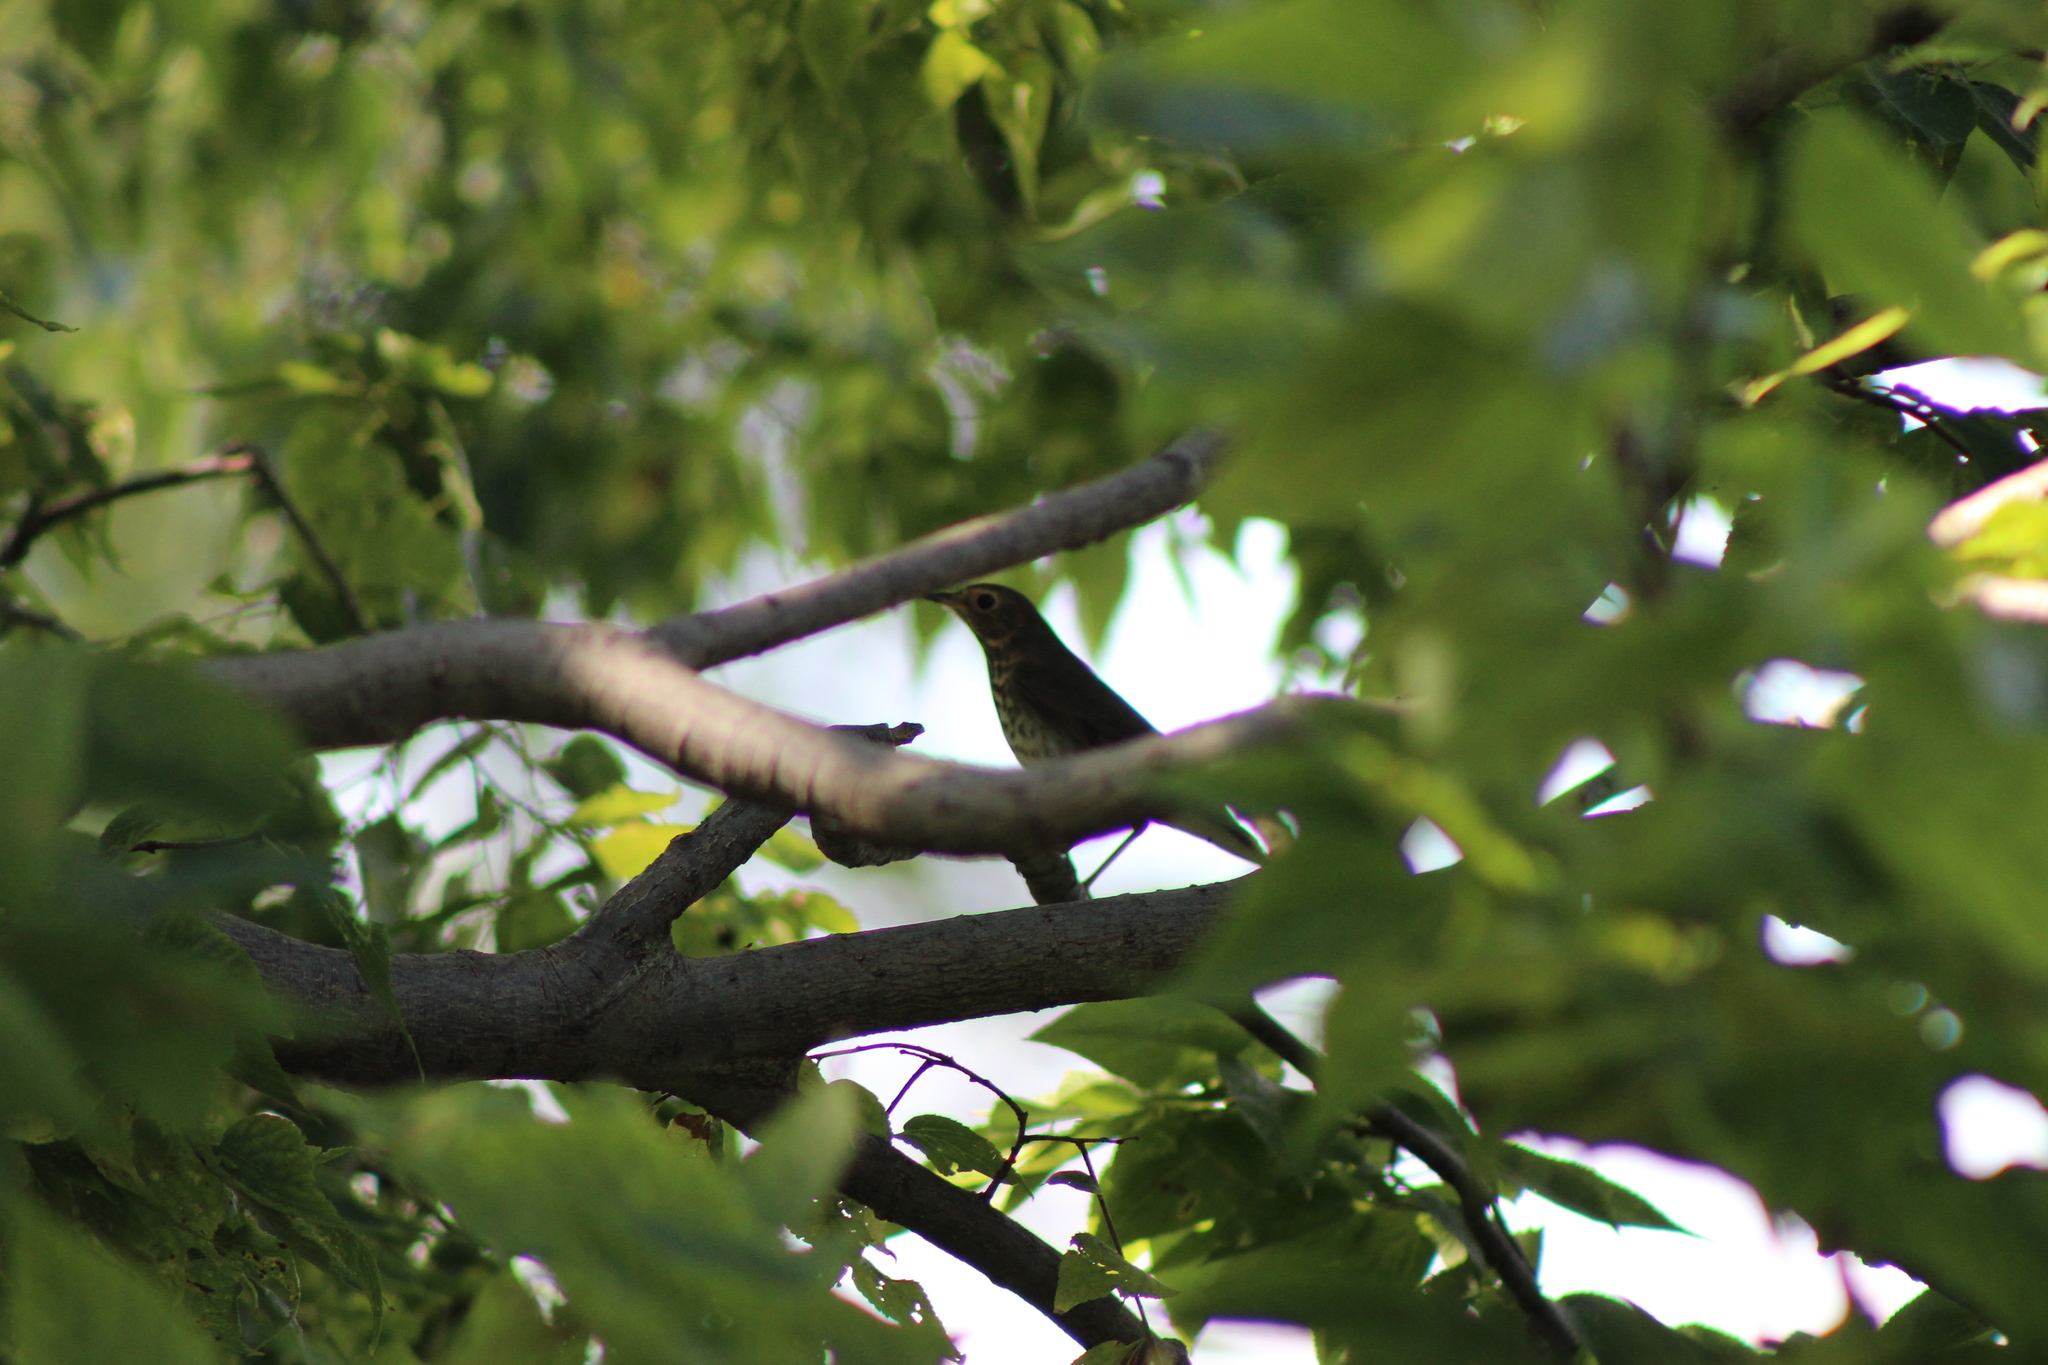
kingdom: Animalia
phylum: Chordata
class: Aves
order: Passeriformes
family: Turdidae
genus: Catharus
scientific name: Catharus ustulatus
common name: Swainson's thrush
